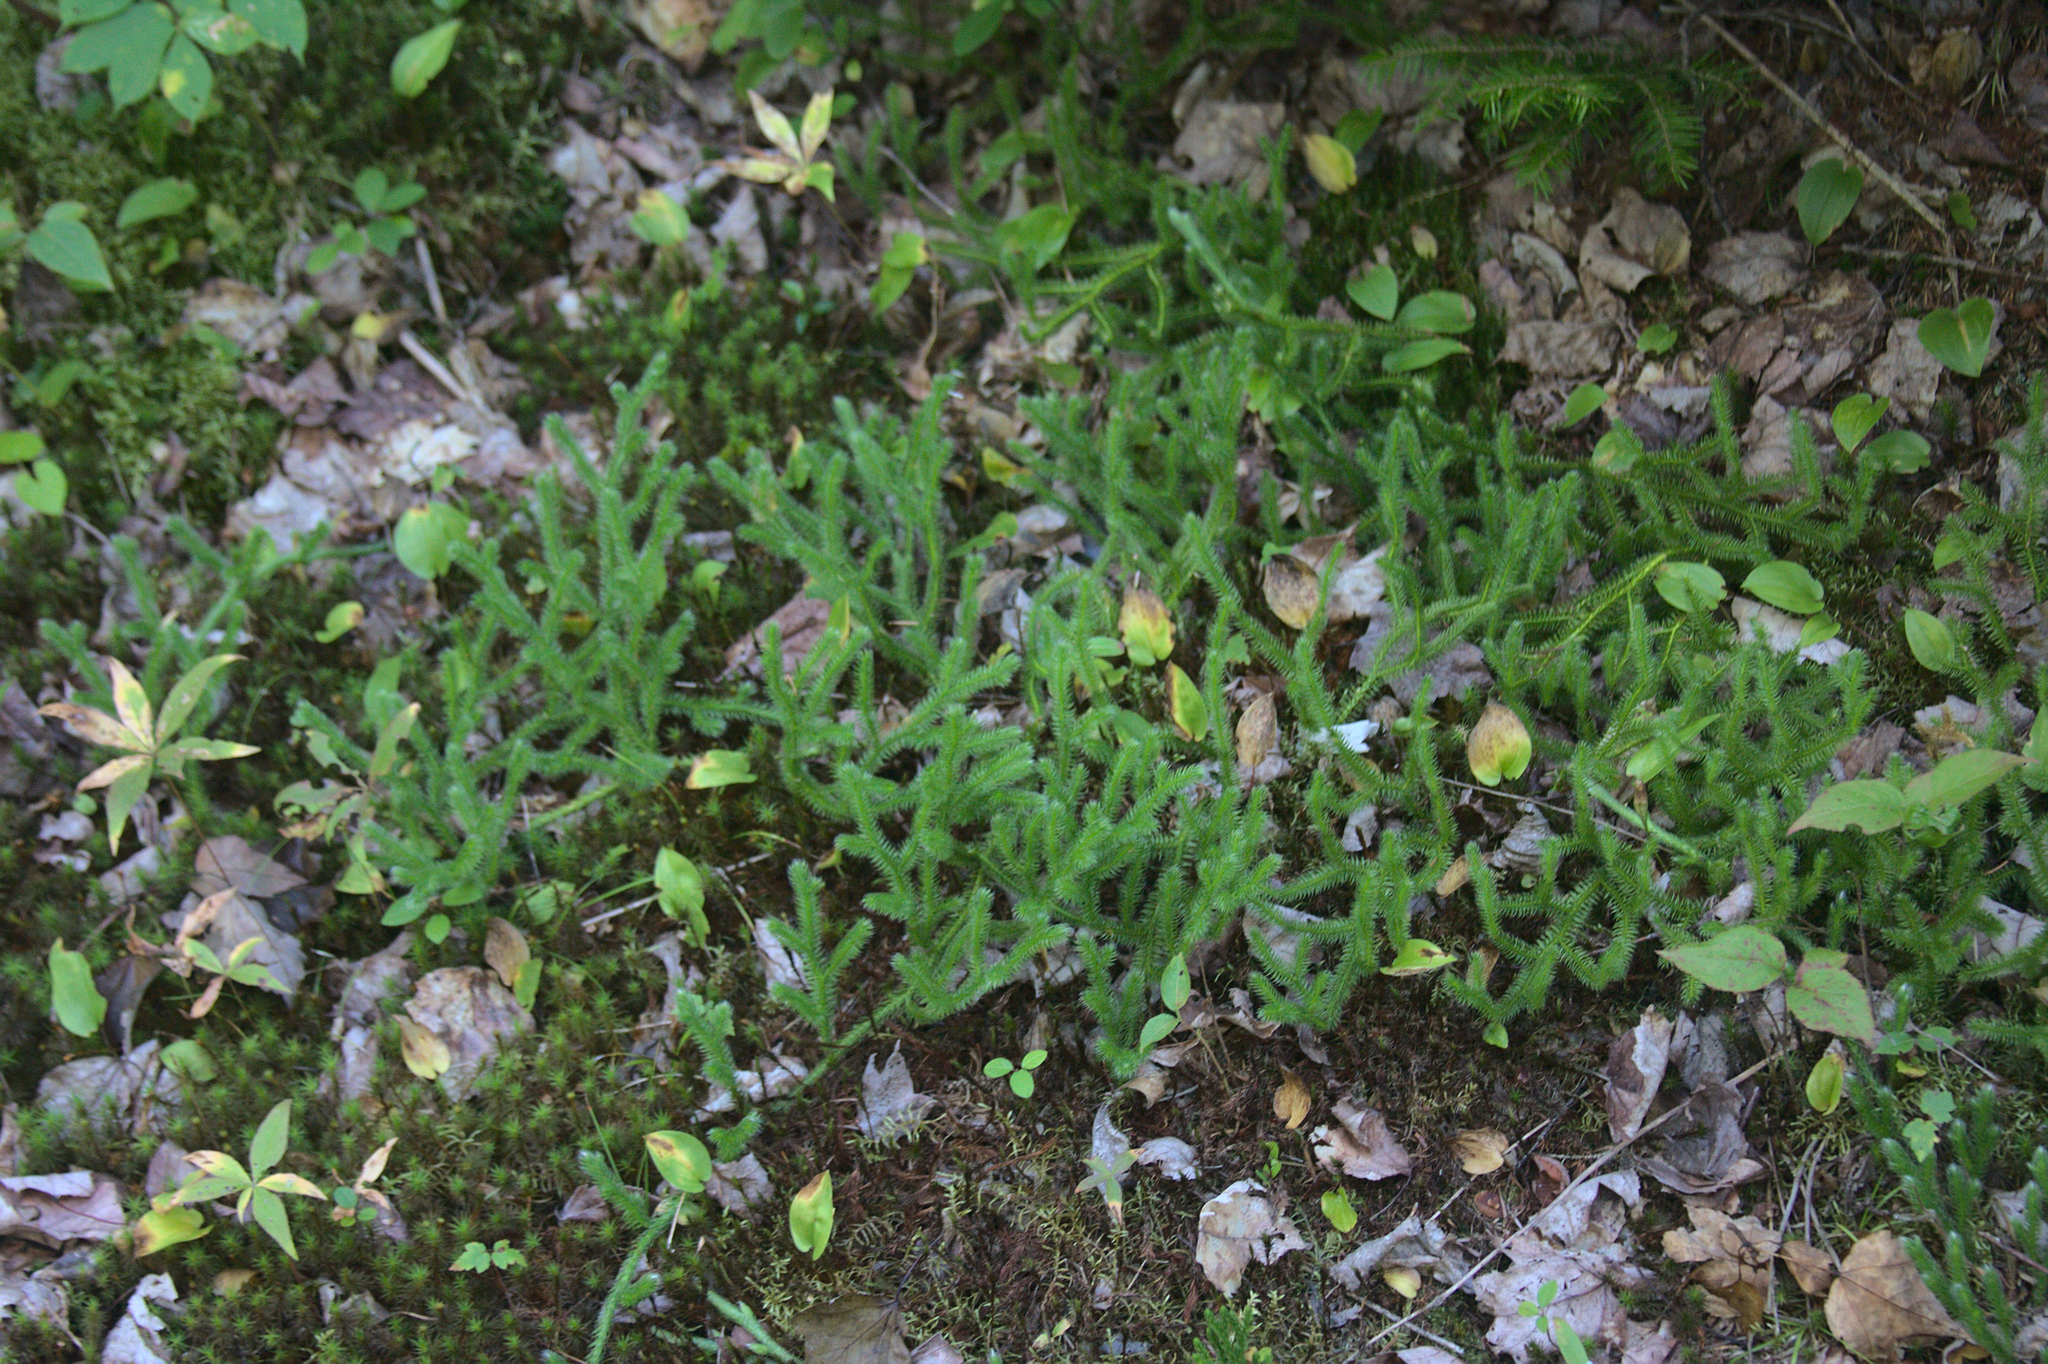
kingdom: Plantae
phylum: Tracheophyta
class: Lycopodiopsida
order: Lycopodiales
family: Lycopodiaceae
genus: Lycopodium
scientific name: Lycopodium clavatum
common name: Stag's-horn clubmoss
